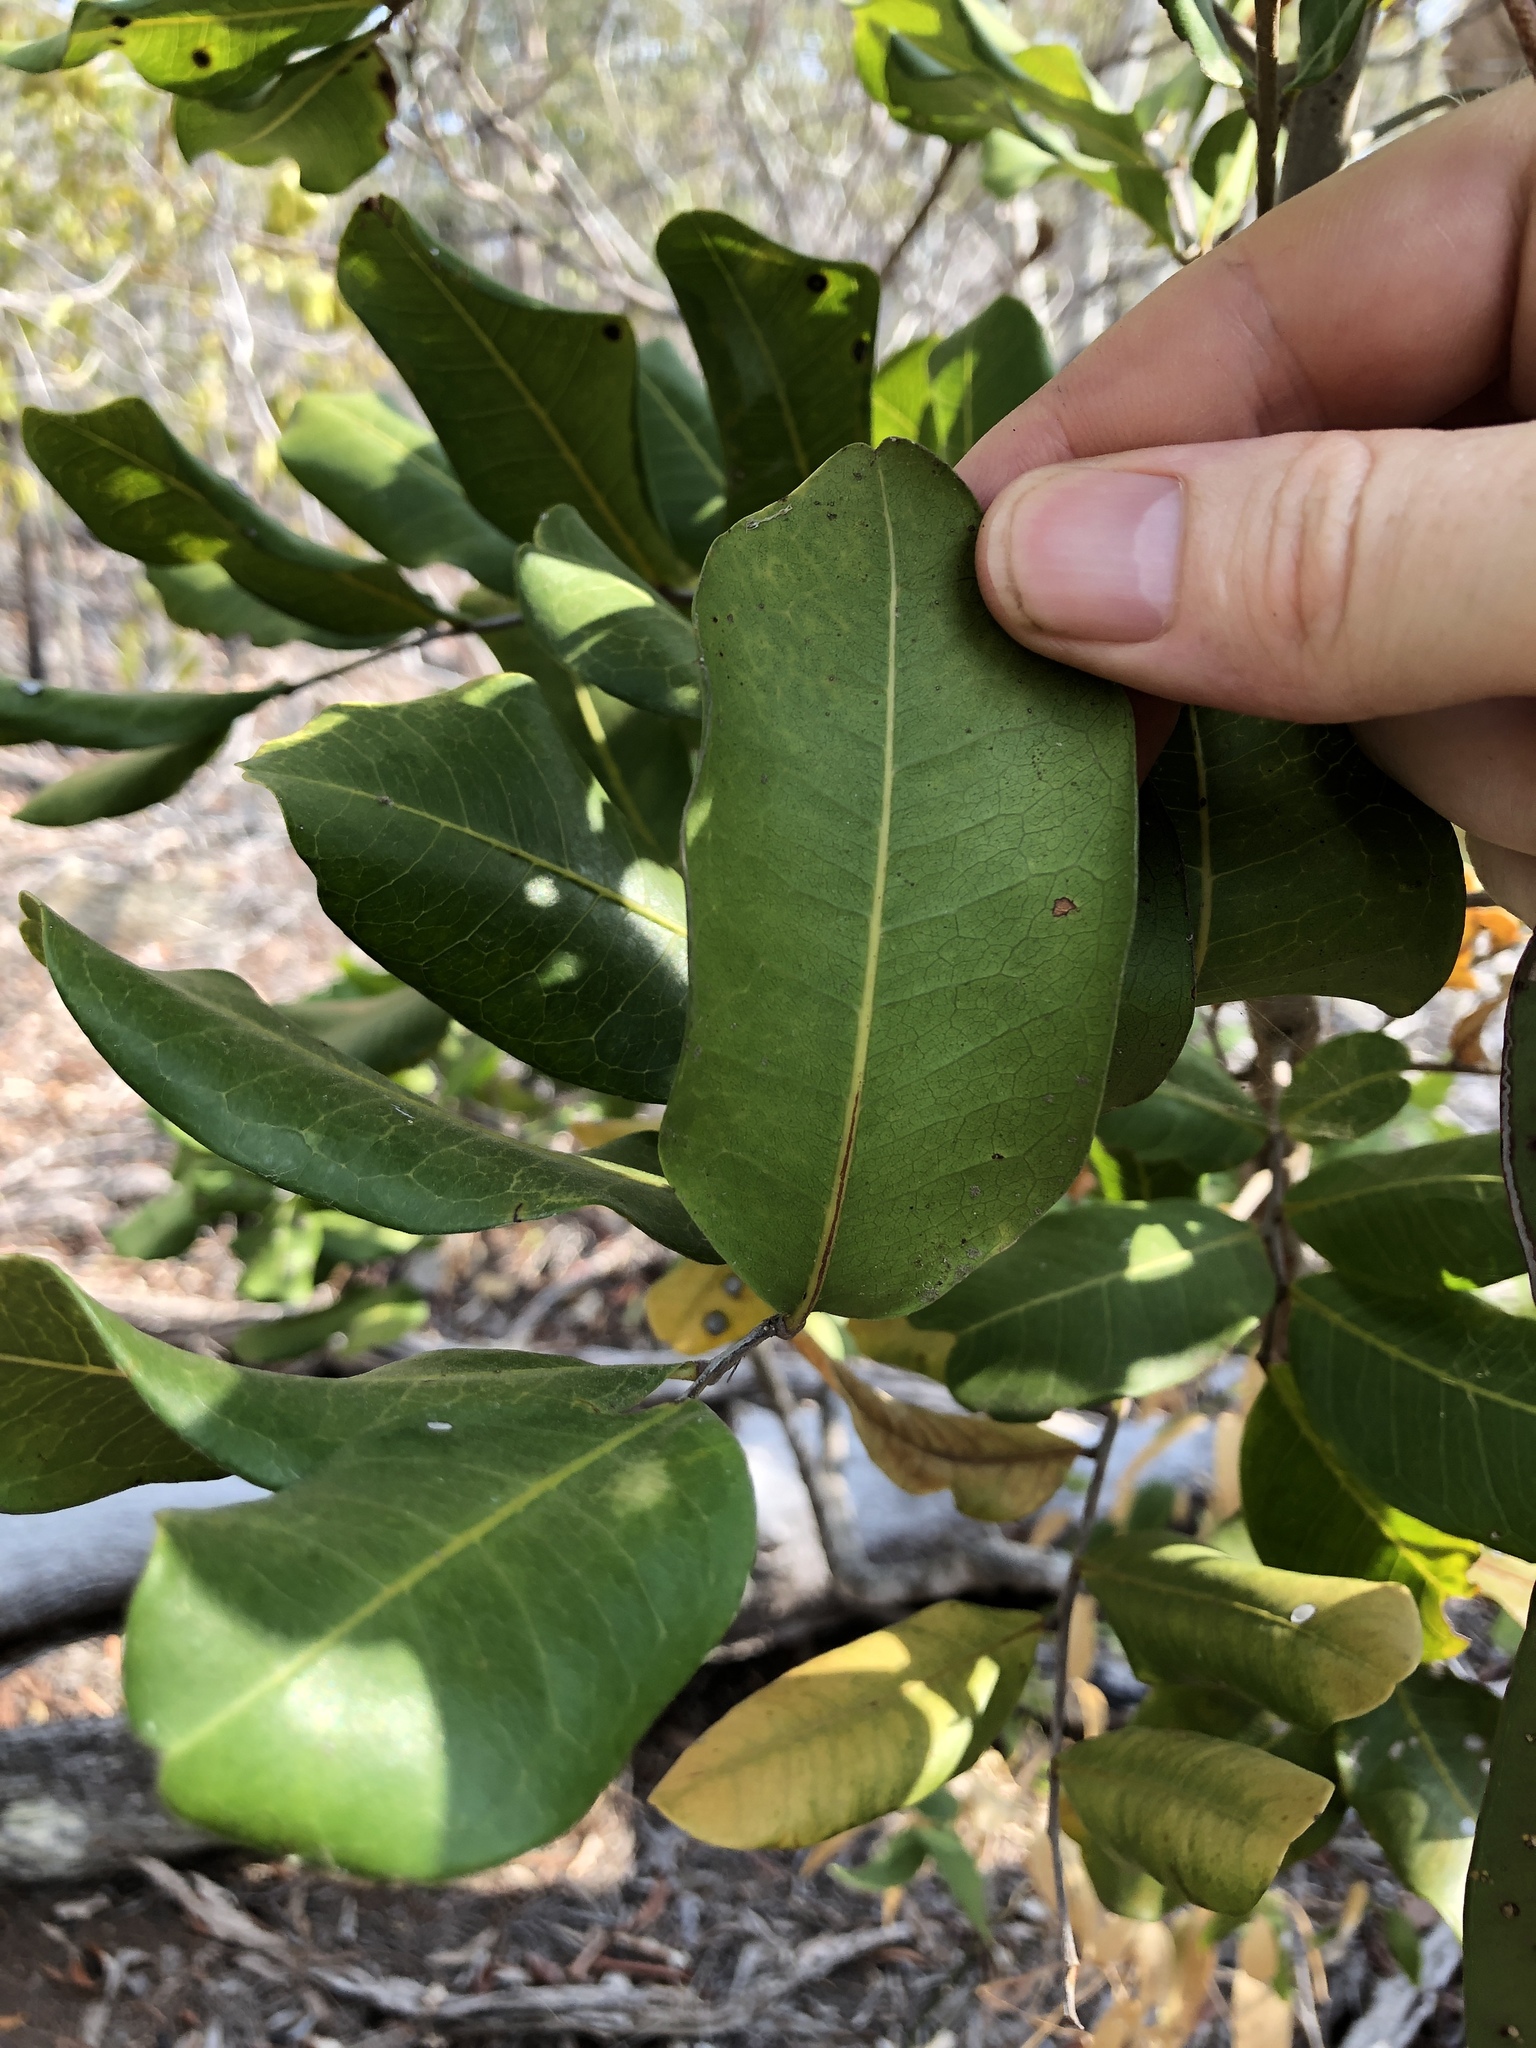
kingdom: Plantae
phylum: Tracheophyta
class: Magnoliopsida
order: Sapindales
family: Sapindaceae
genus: Cupaniopsis
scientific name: Cupaniopsis anacardioides
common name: Carrotwood
